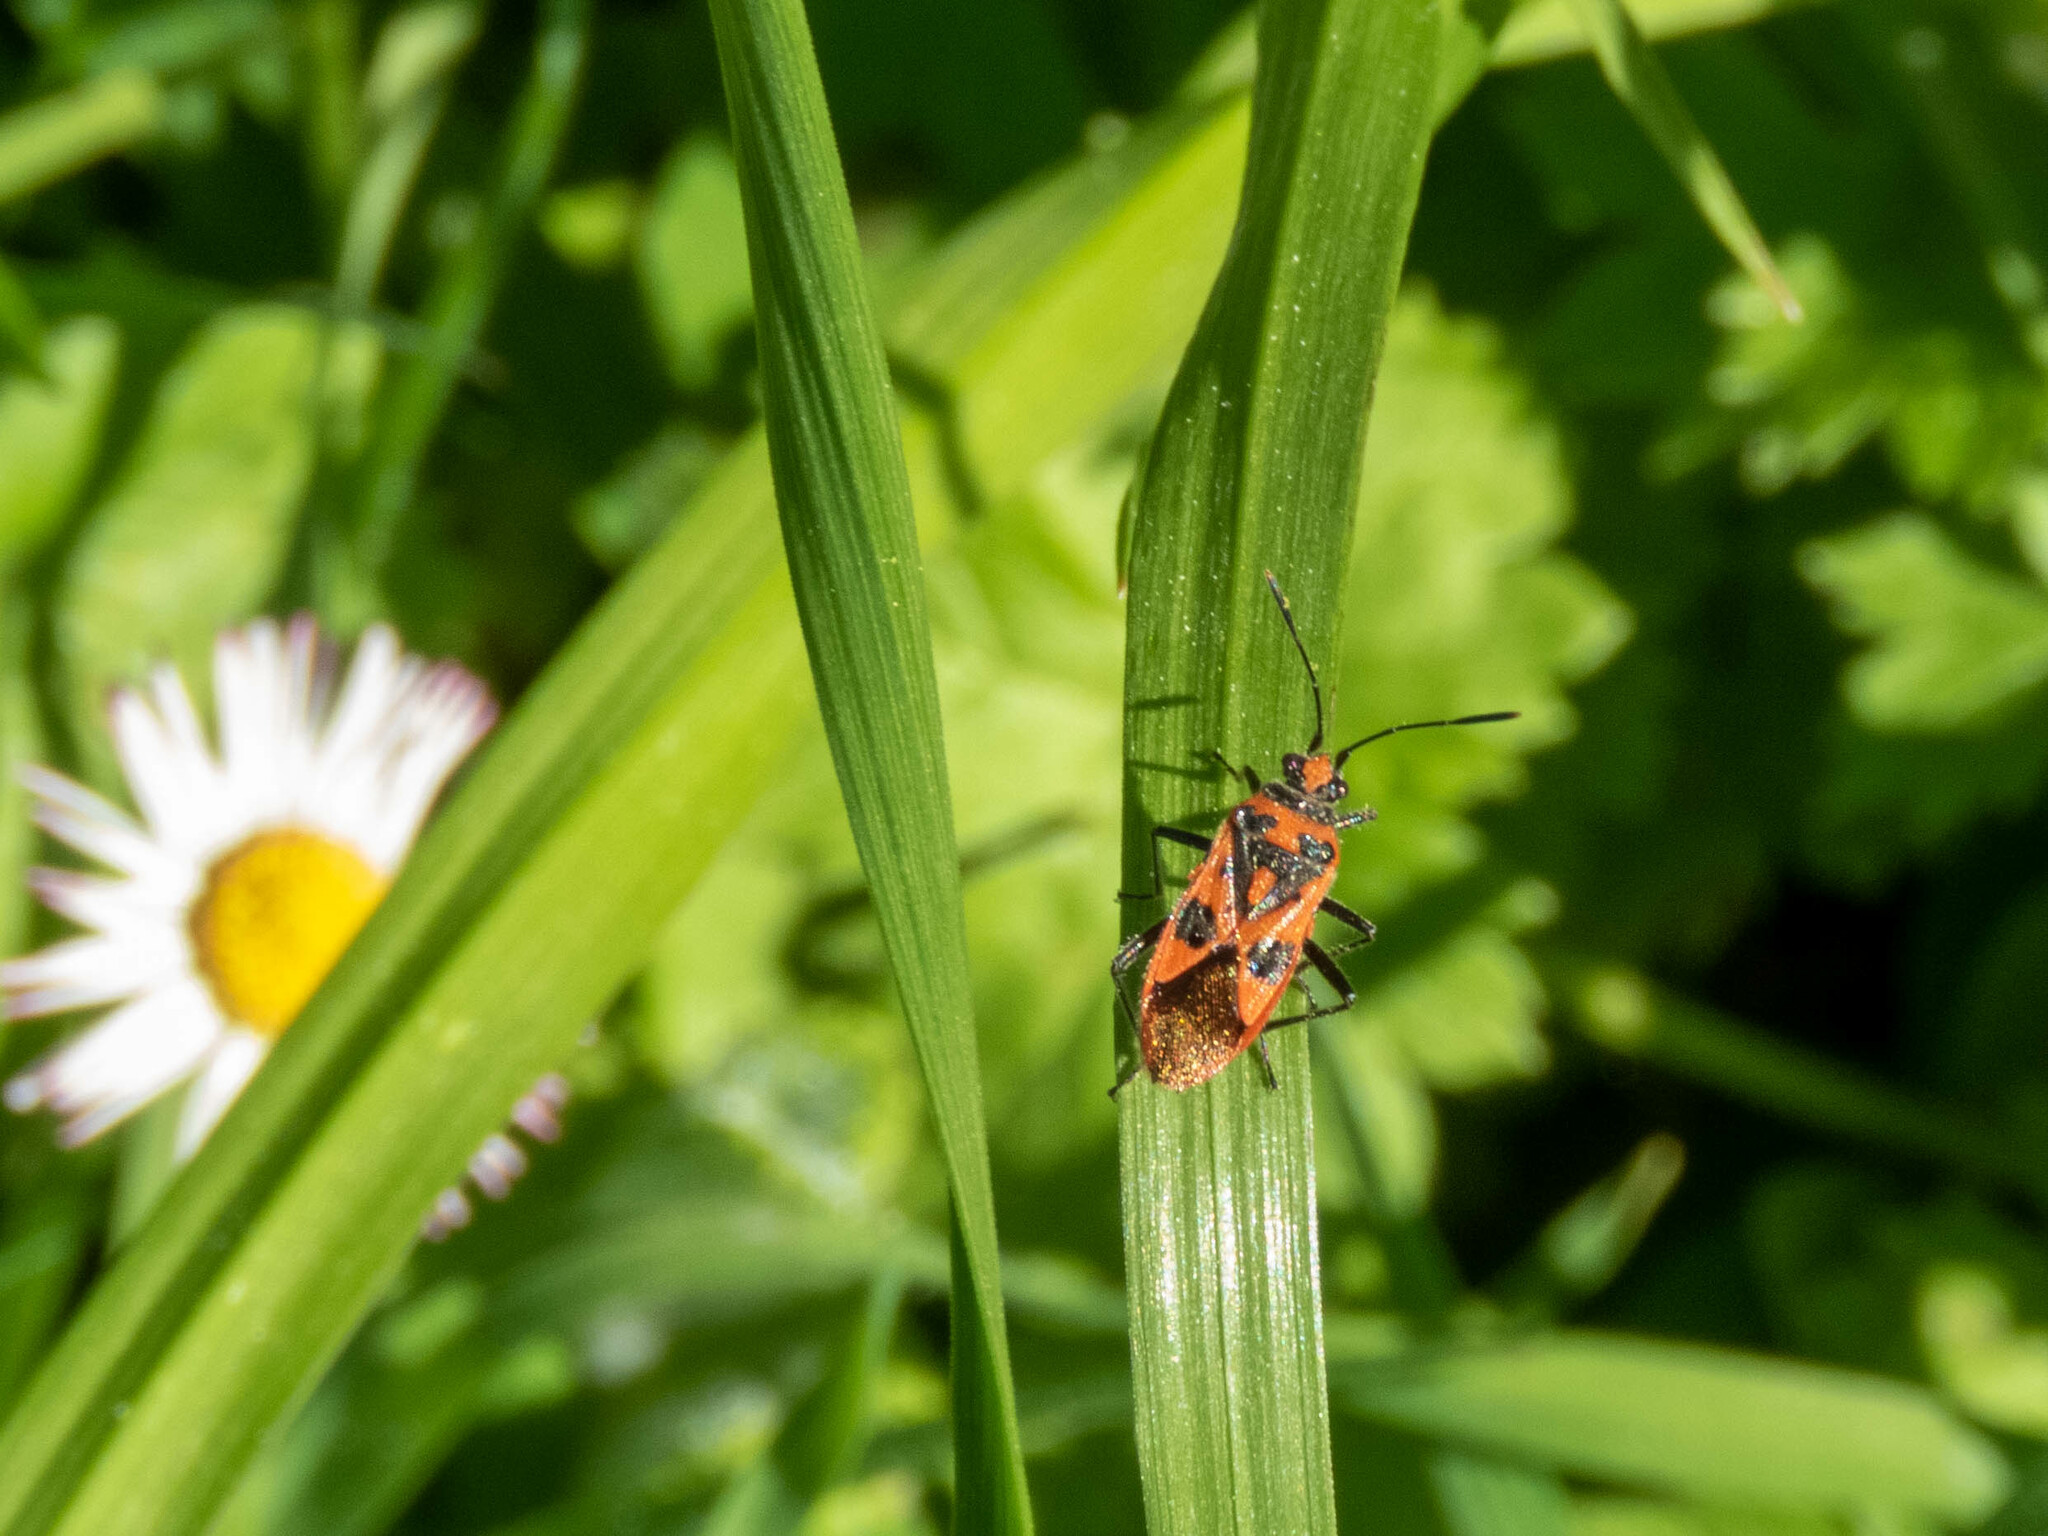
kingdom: Animalia
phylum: Arthropoda
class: Insecta
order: Hemiptera
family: Rhopalidae
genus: Corizus
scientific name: Corizus hyoscyami
